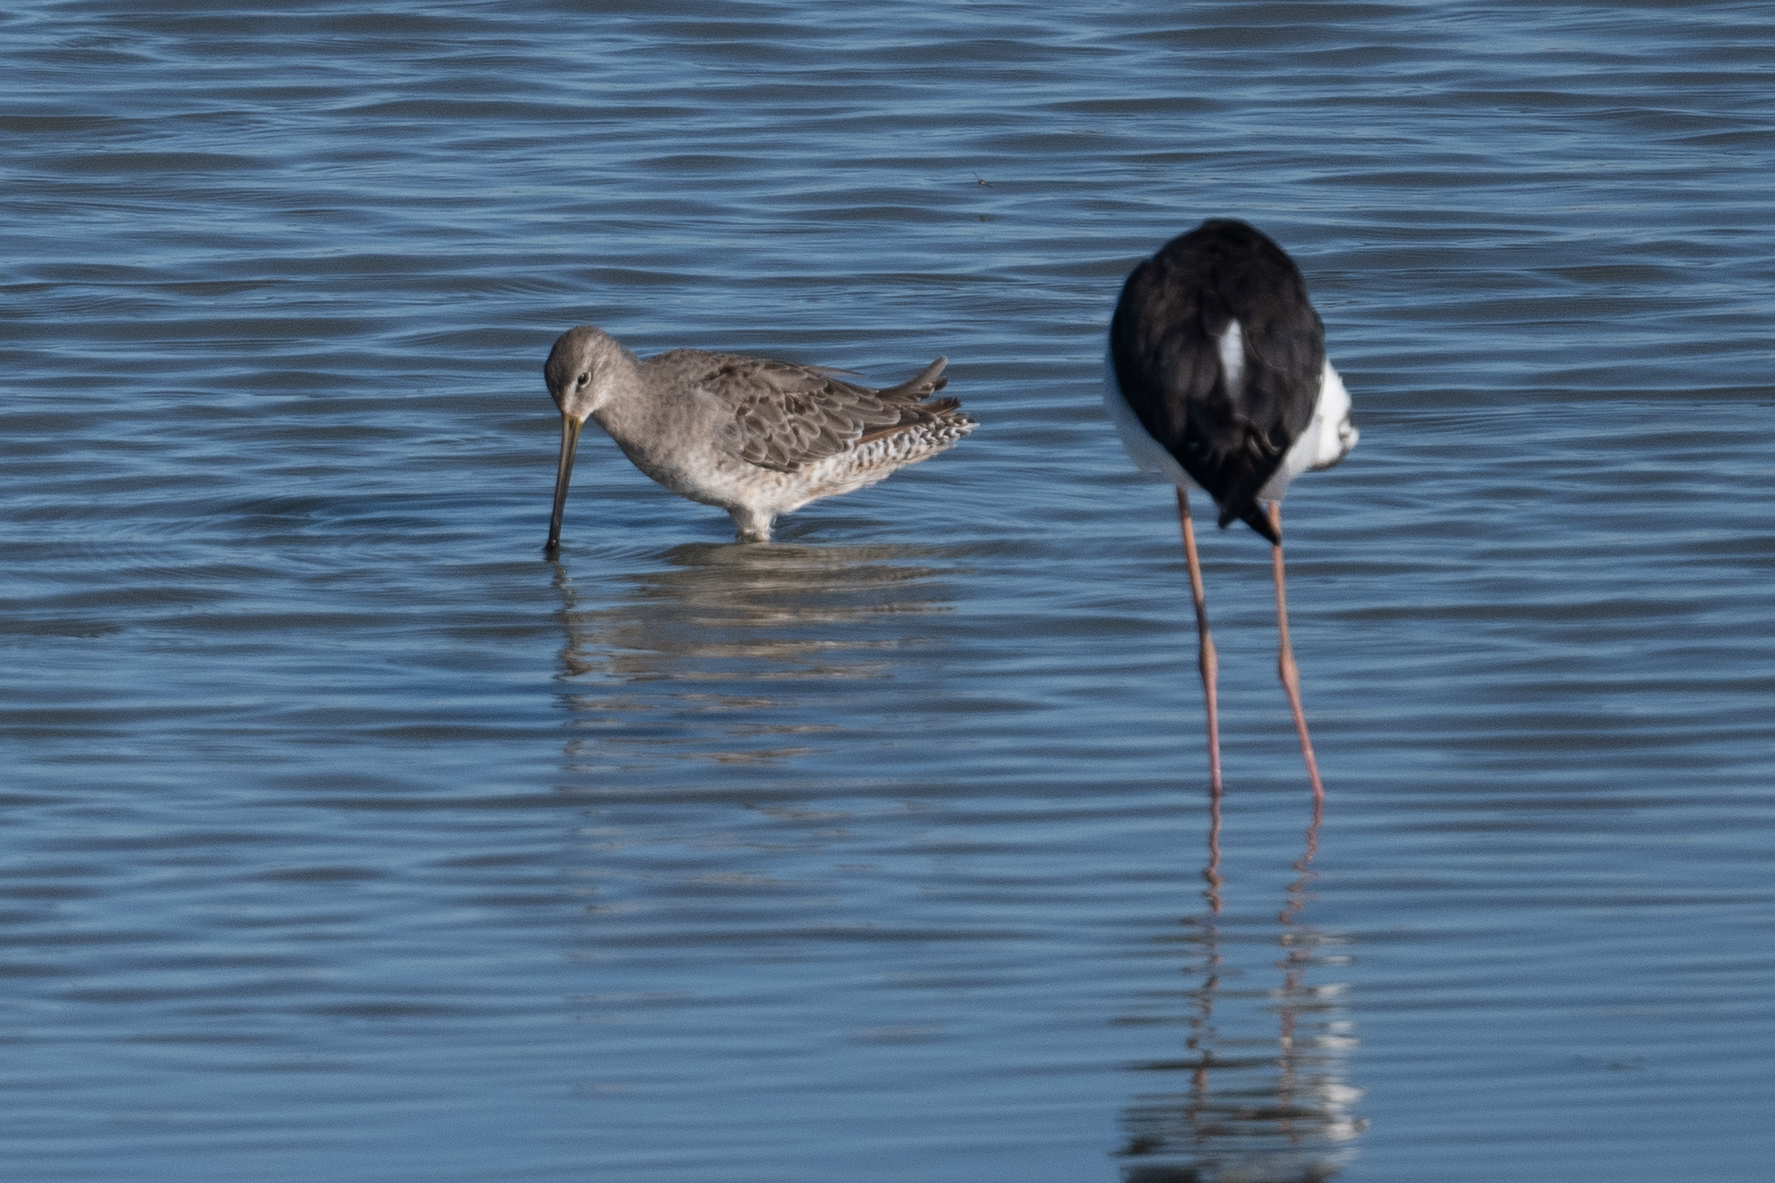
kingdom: Animalia
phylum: Chordata
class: Aves
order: Charadriiformes
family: Scolopacidae
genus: Limnodromus
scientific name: Limnodromus scolopaceus
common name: Long-billed dowitcher
